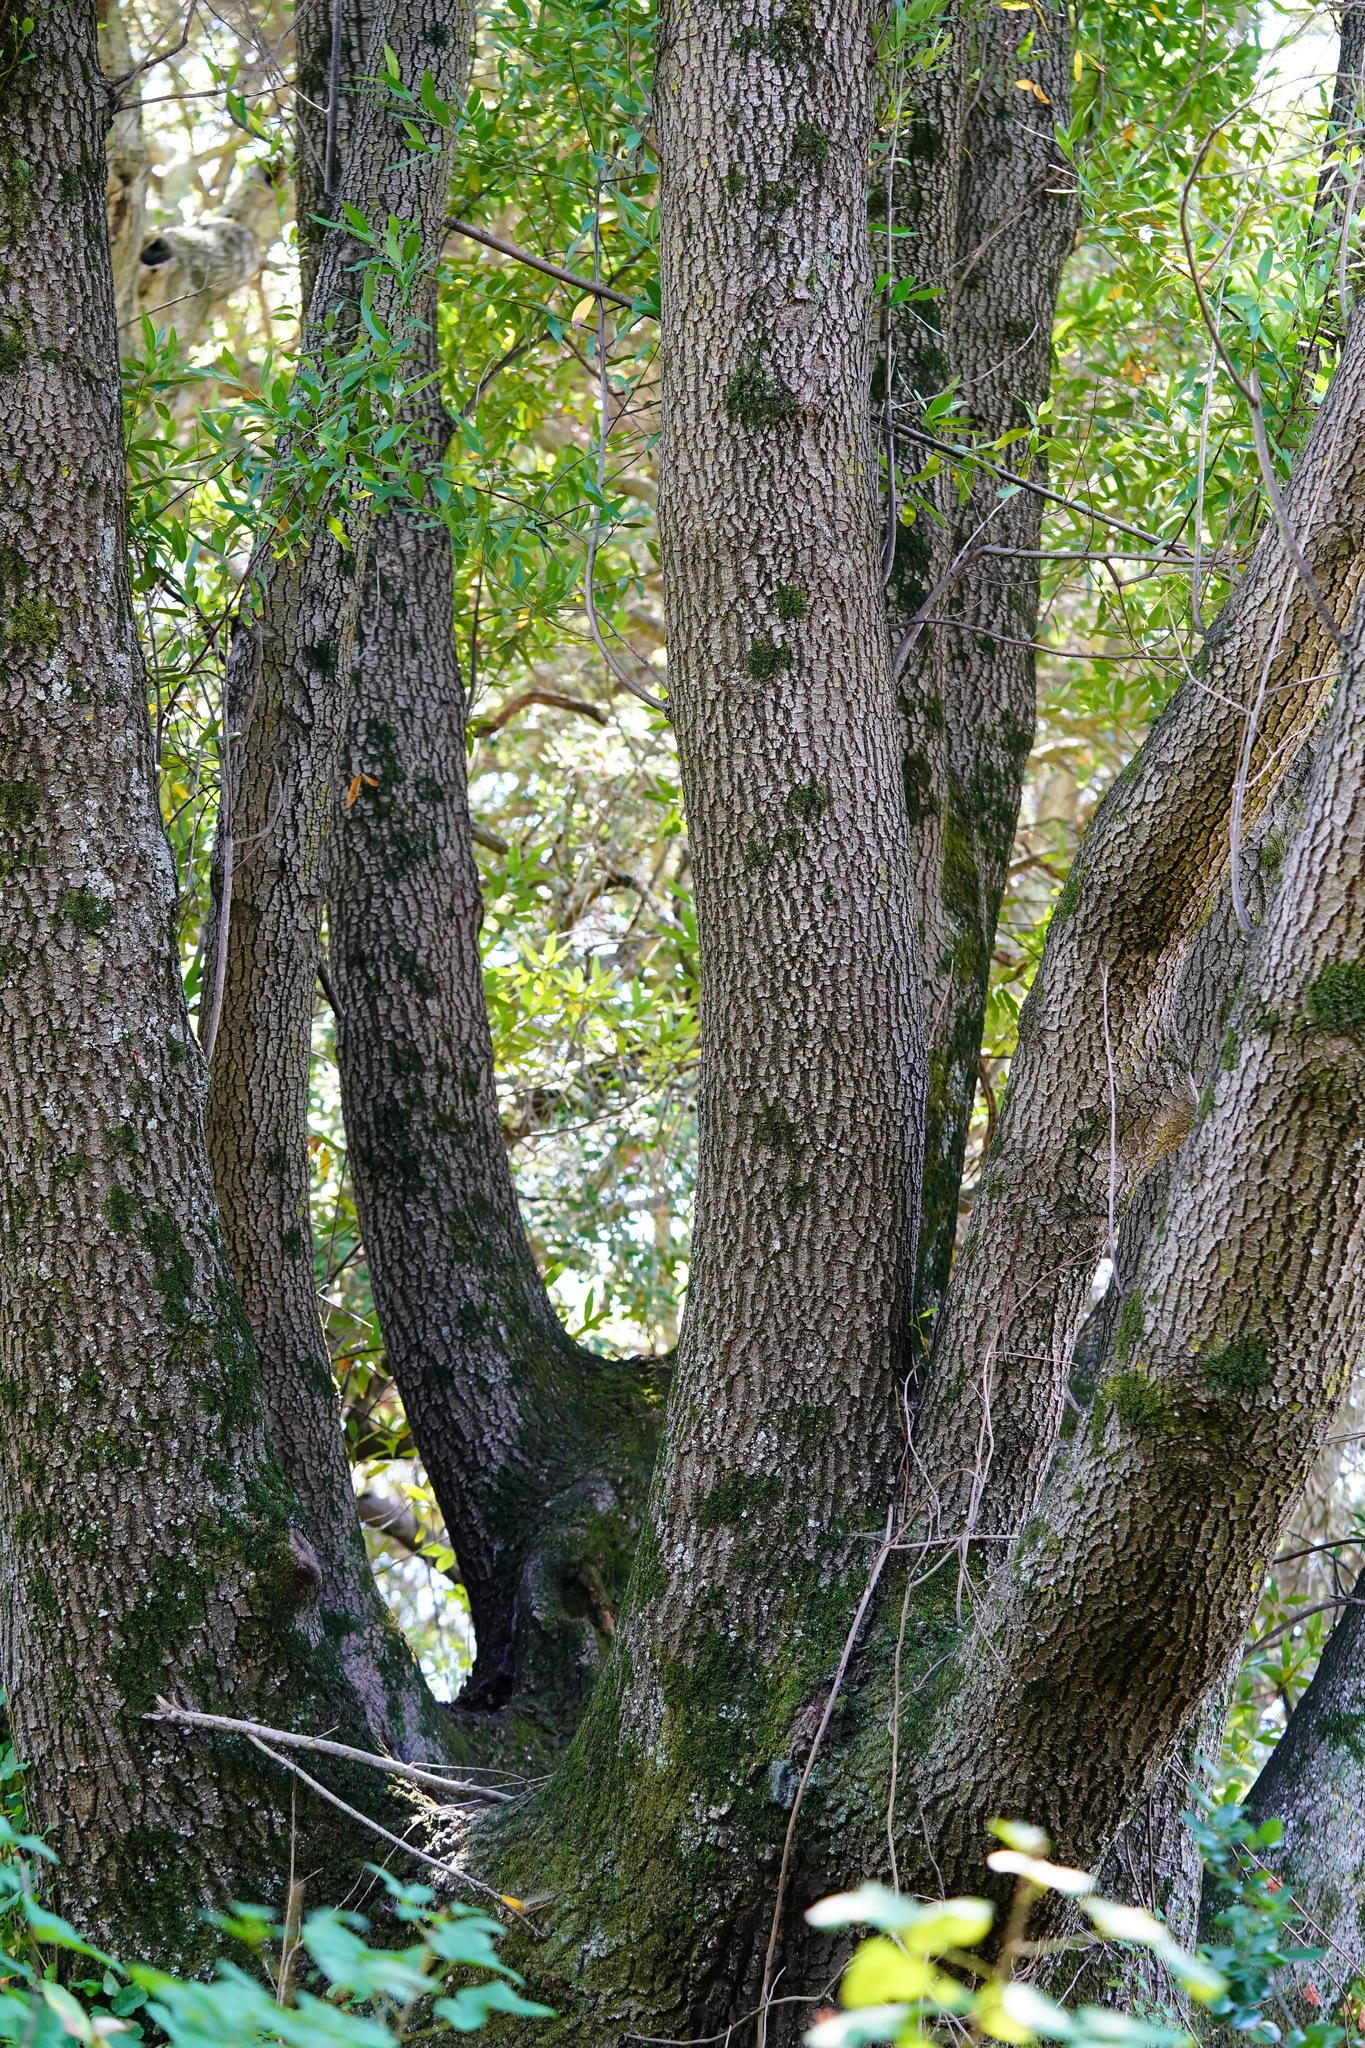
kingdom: Plantae
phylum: Tracheophyta
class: Magnoliopsida
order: Laurales
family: Lauraceae
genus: Umbellularia
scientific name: Umbellularia californica
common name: California bay
